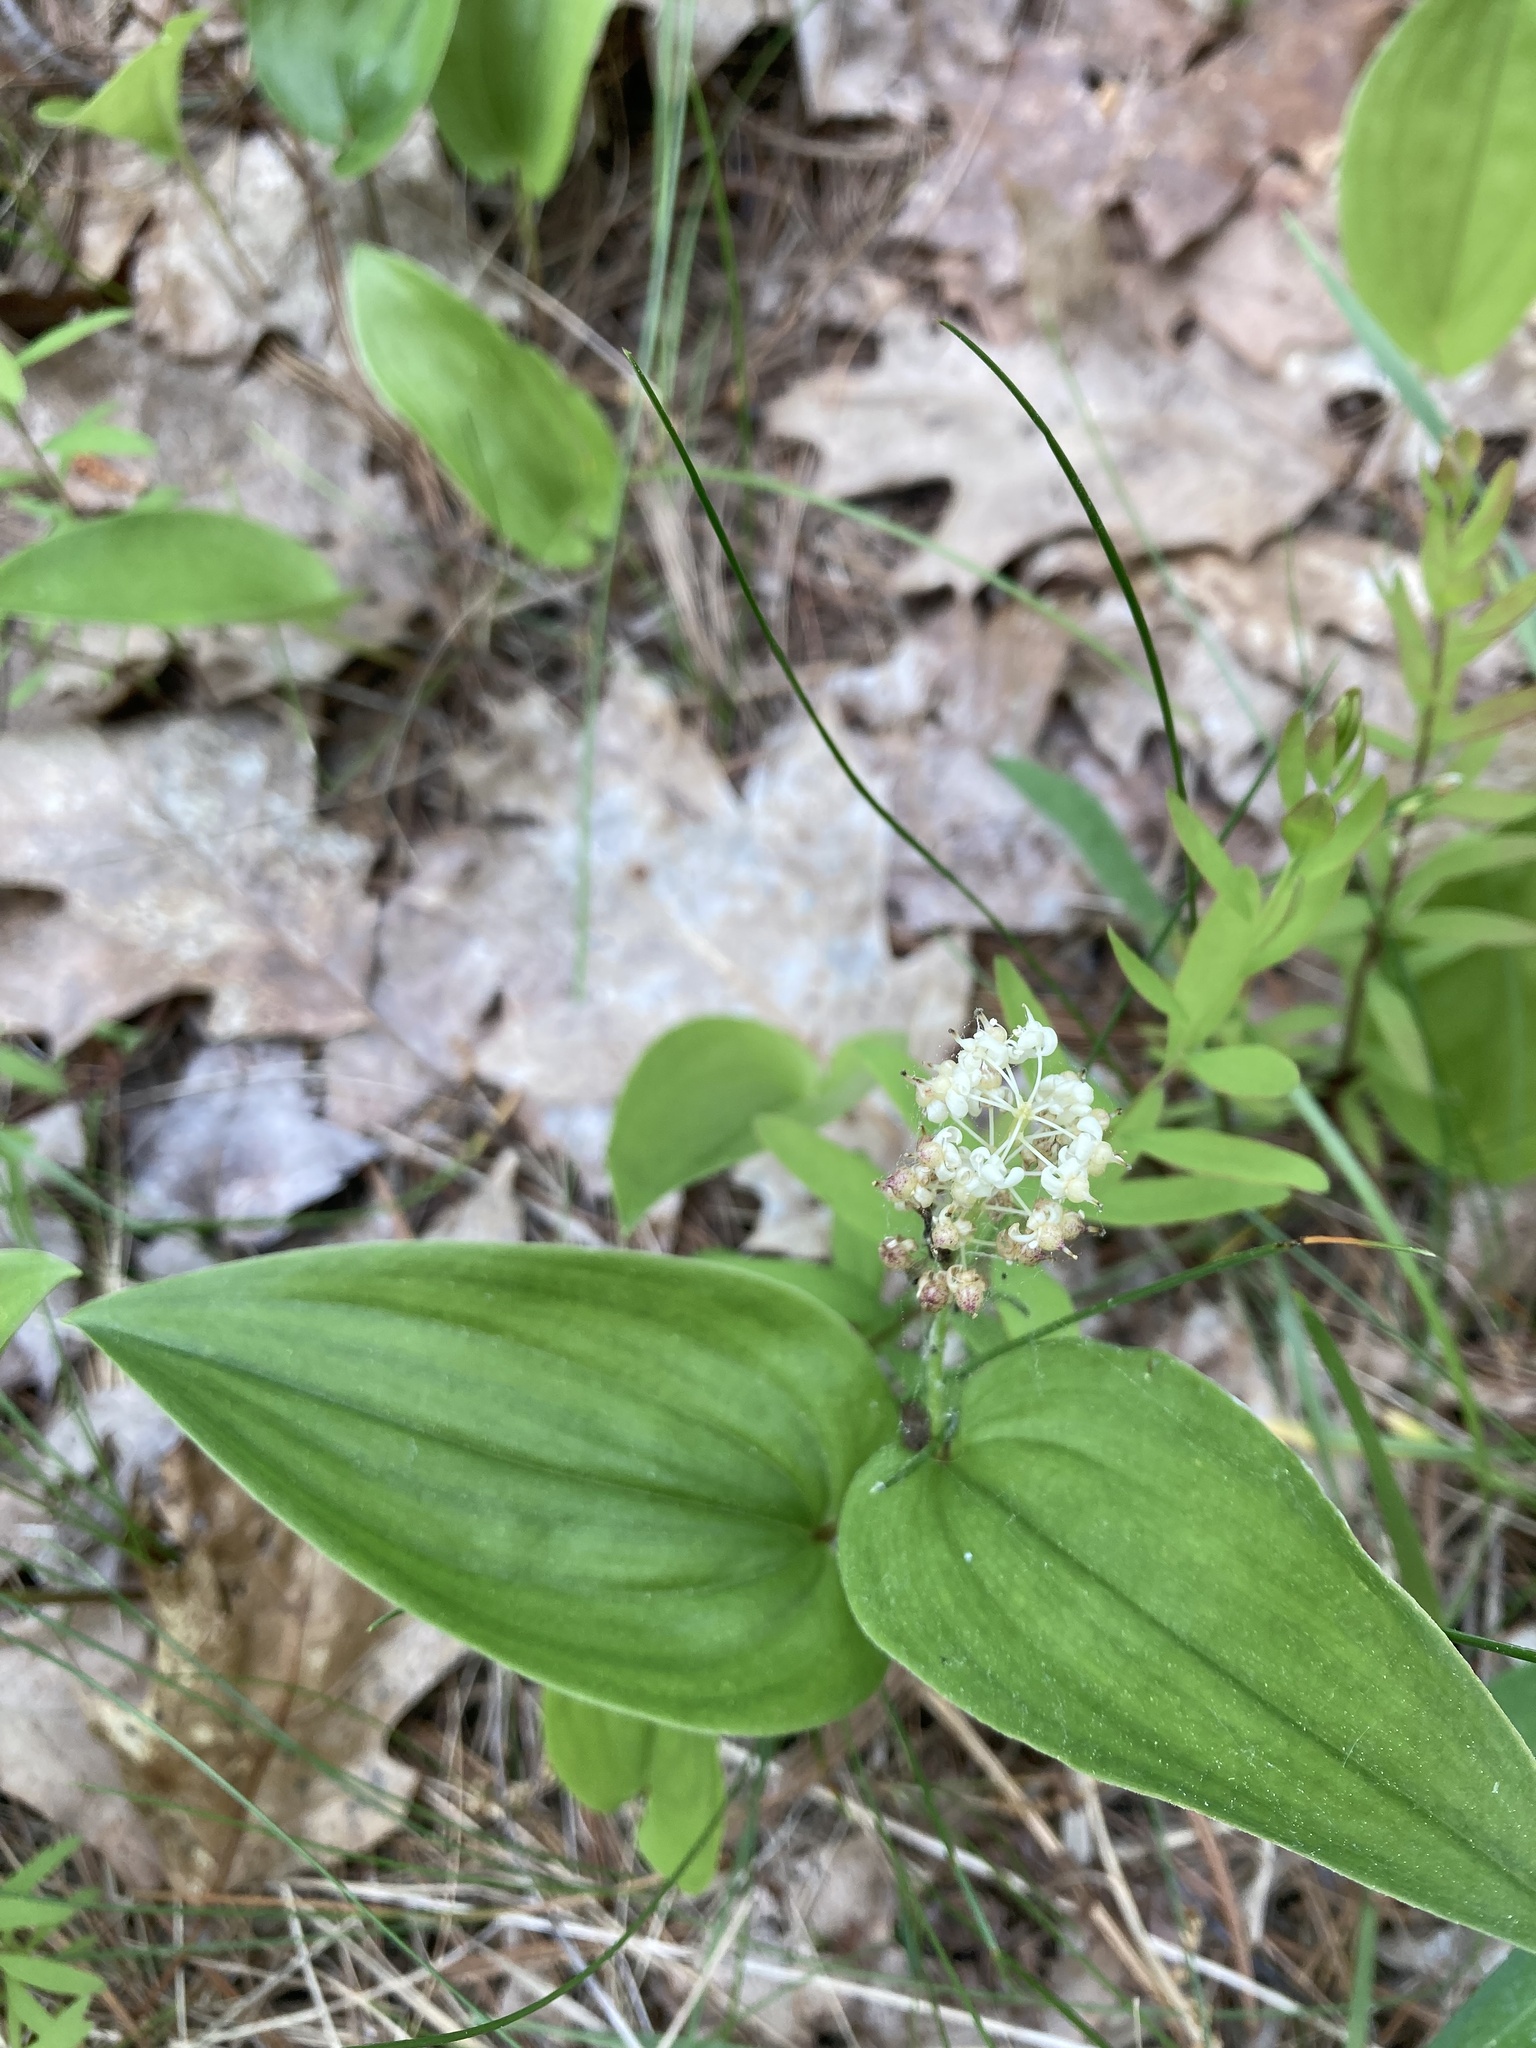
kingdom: Plantae
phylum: Tracheophyta
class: Liliopsida
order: Asparagales
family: Asparagaceae
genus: Maianthemum
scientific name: Maianthemum canadense
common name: False lily-of-the-valley
